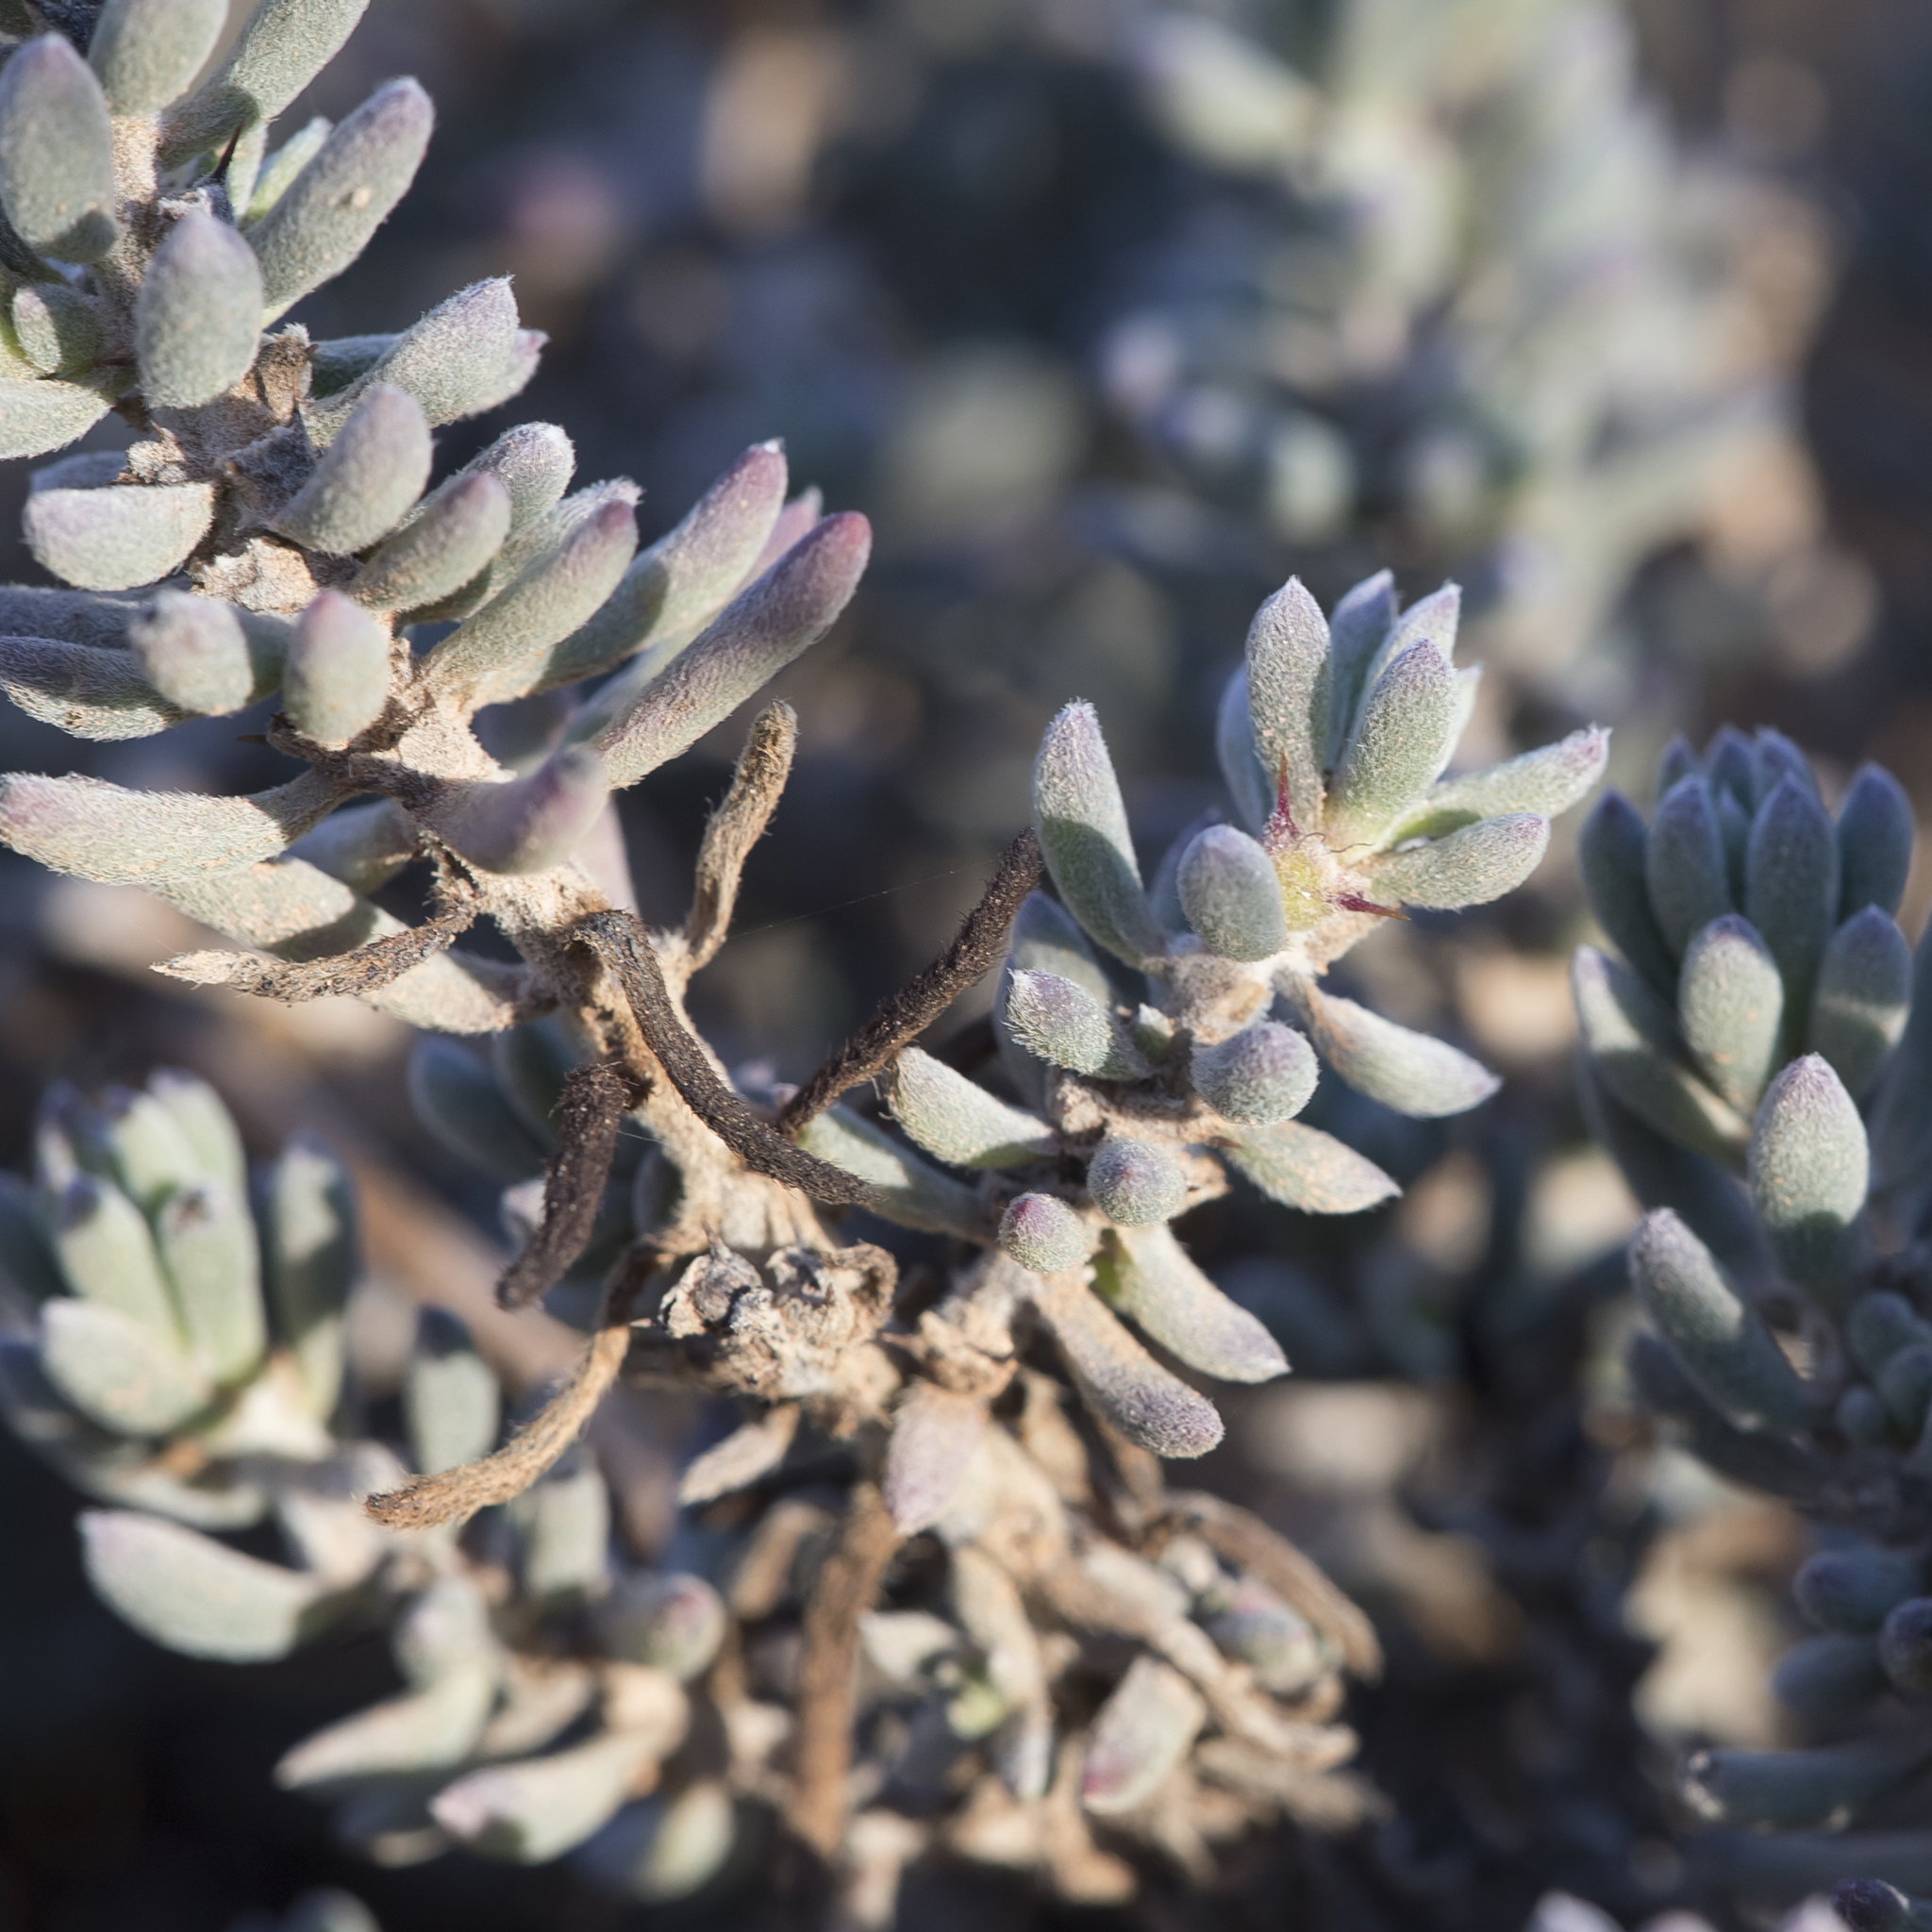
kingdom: Plantae
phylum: Tracheophyta
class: Magnoliopsida
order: Caryophyllales
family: Amaranthaceae
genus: Sclerolaena
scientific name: Sclerolaena diacantha
